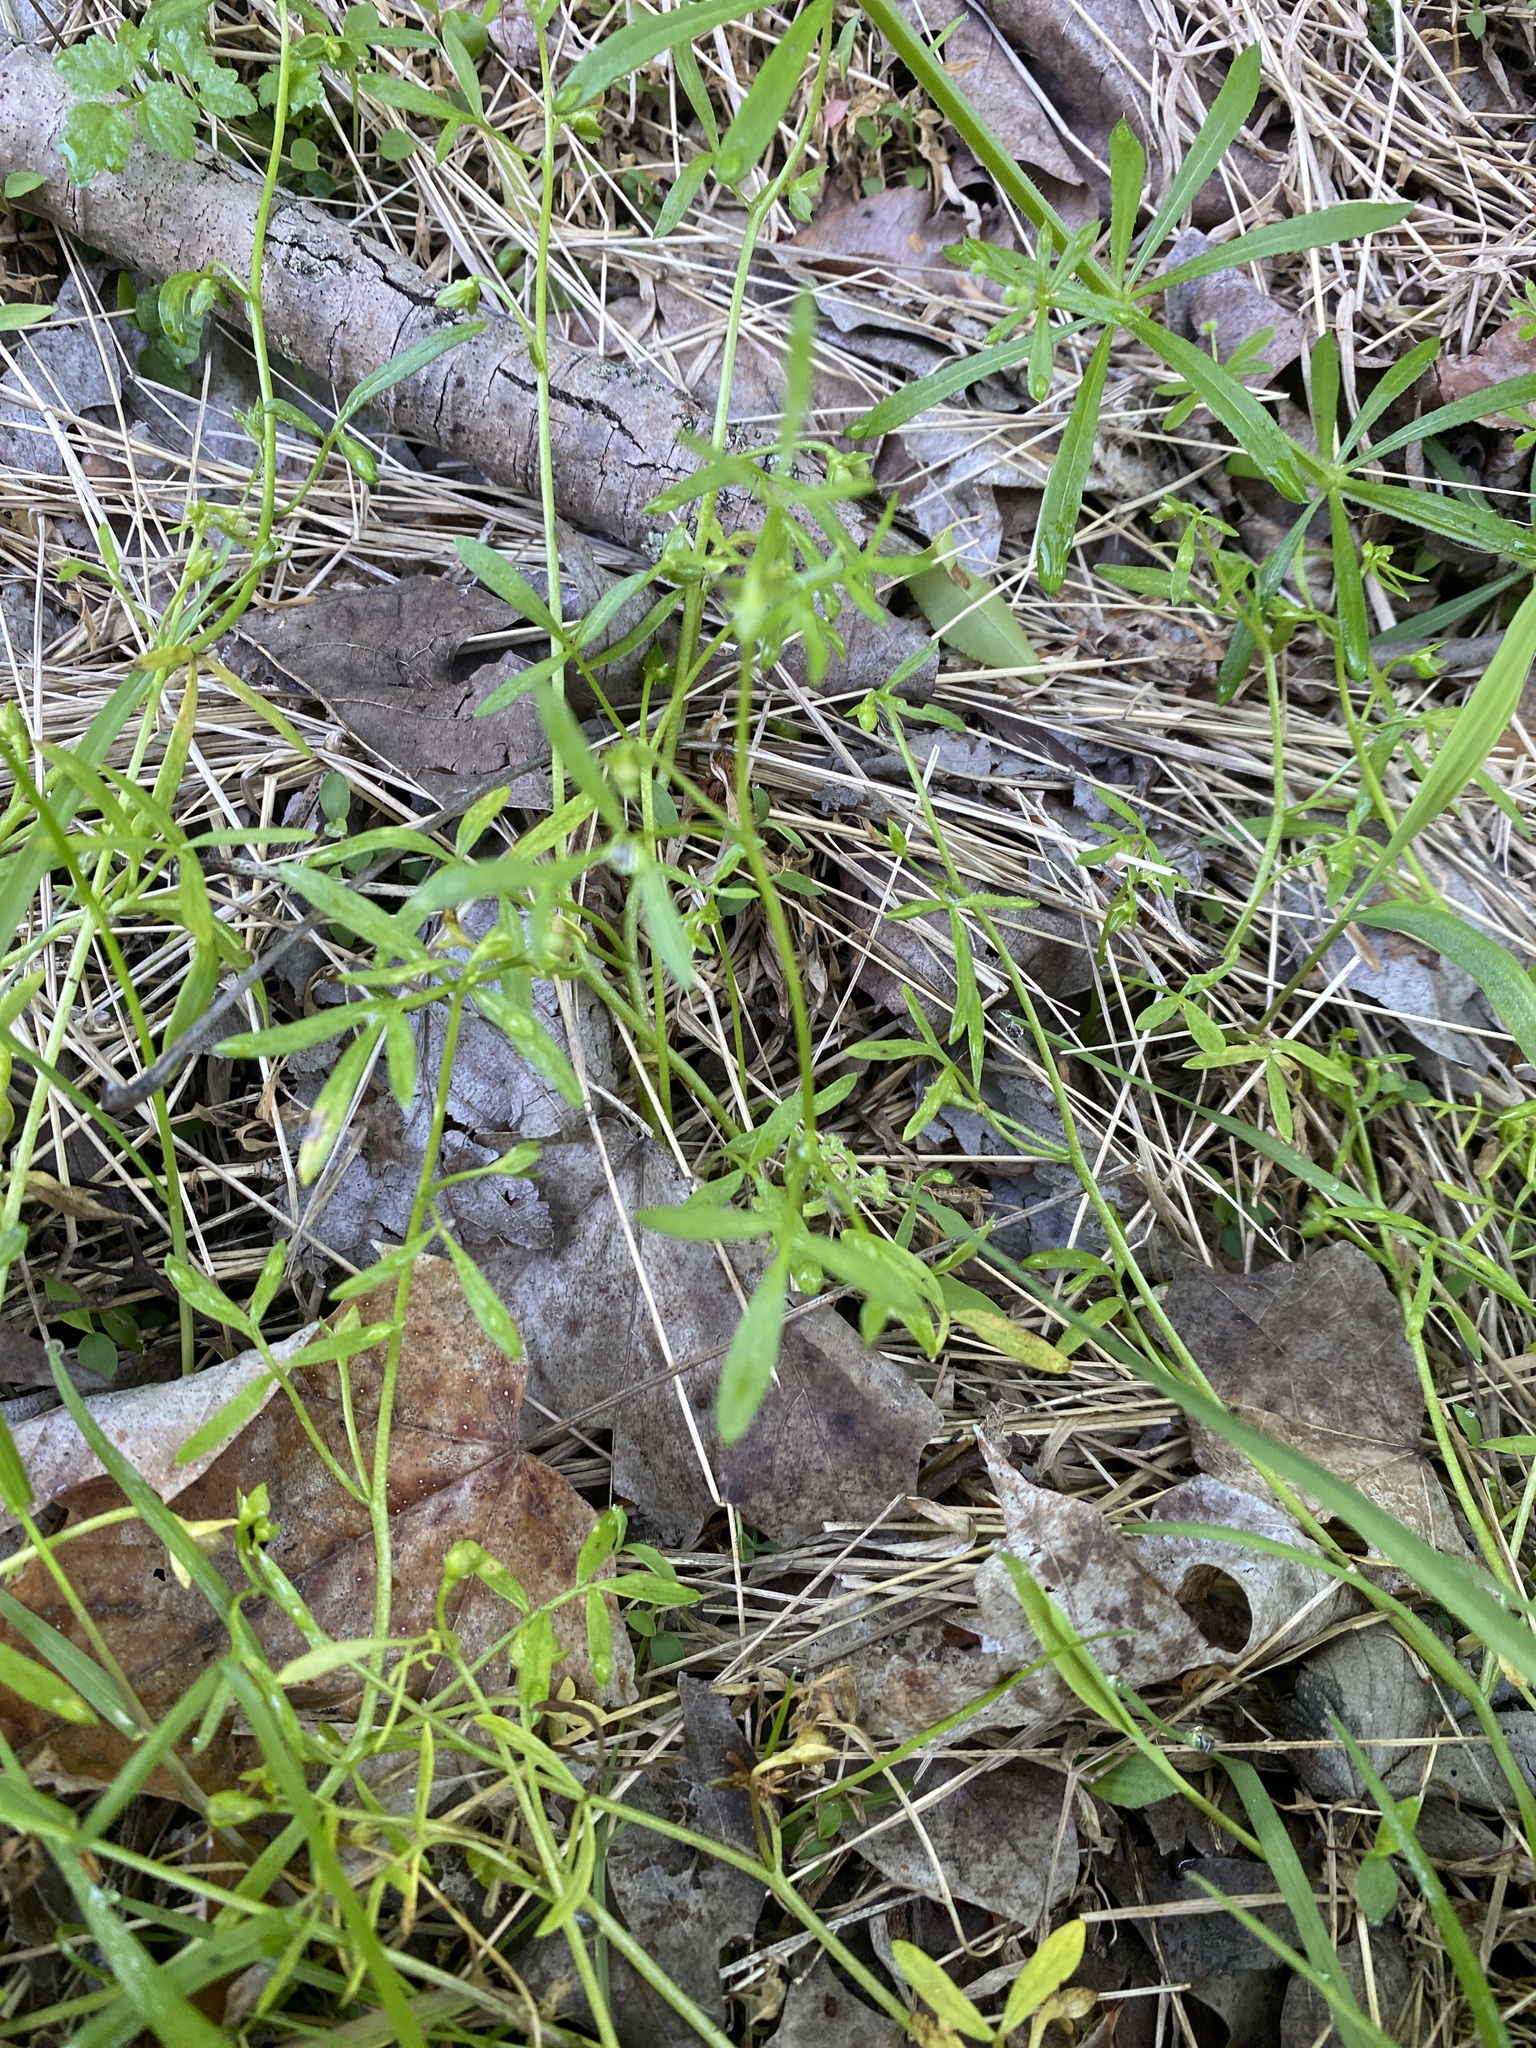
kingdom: Plantae
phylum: Tracheophyta
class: Magnoliopsida
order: Brassicales
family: Limnanthaceae
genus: Floerkea
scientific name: Floerkea proserpinacoides
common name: False mermaid
